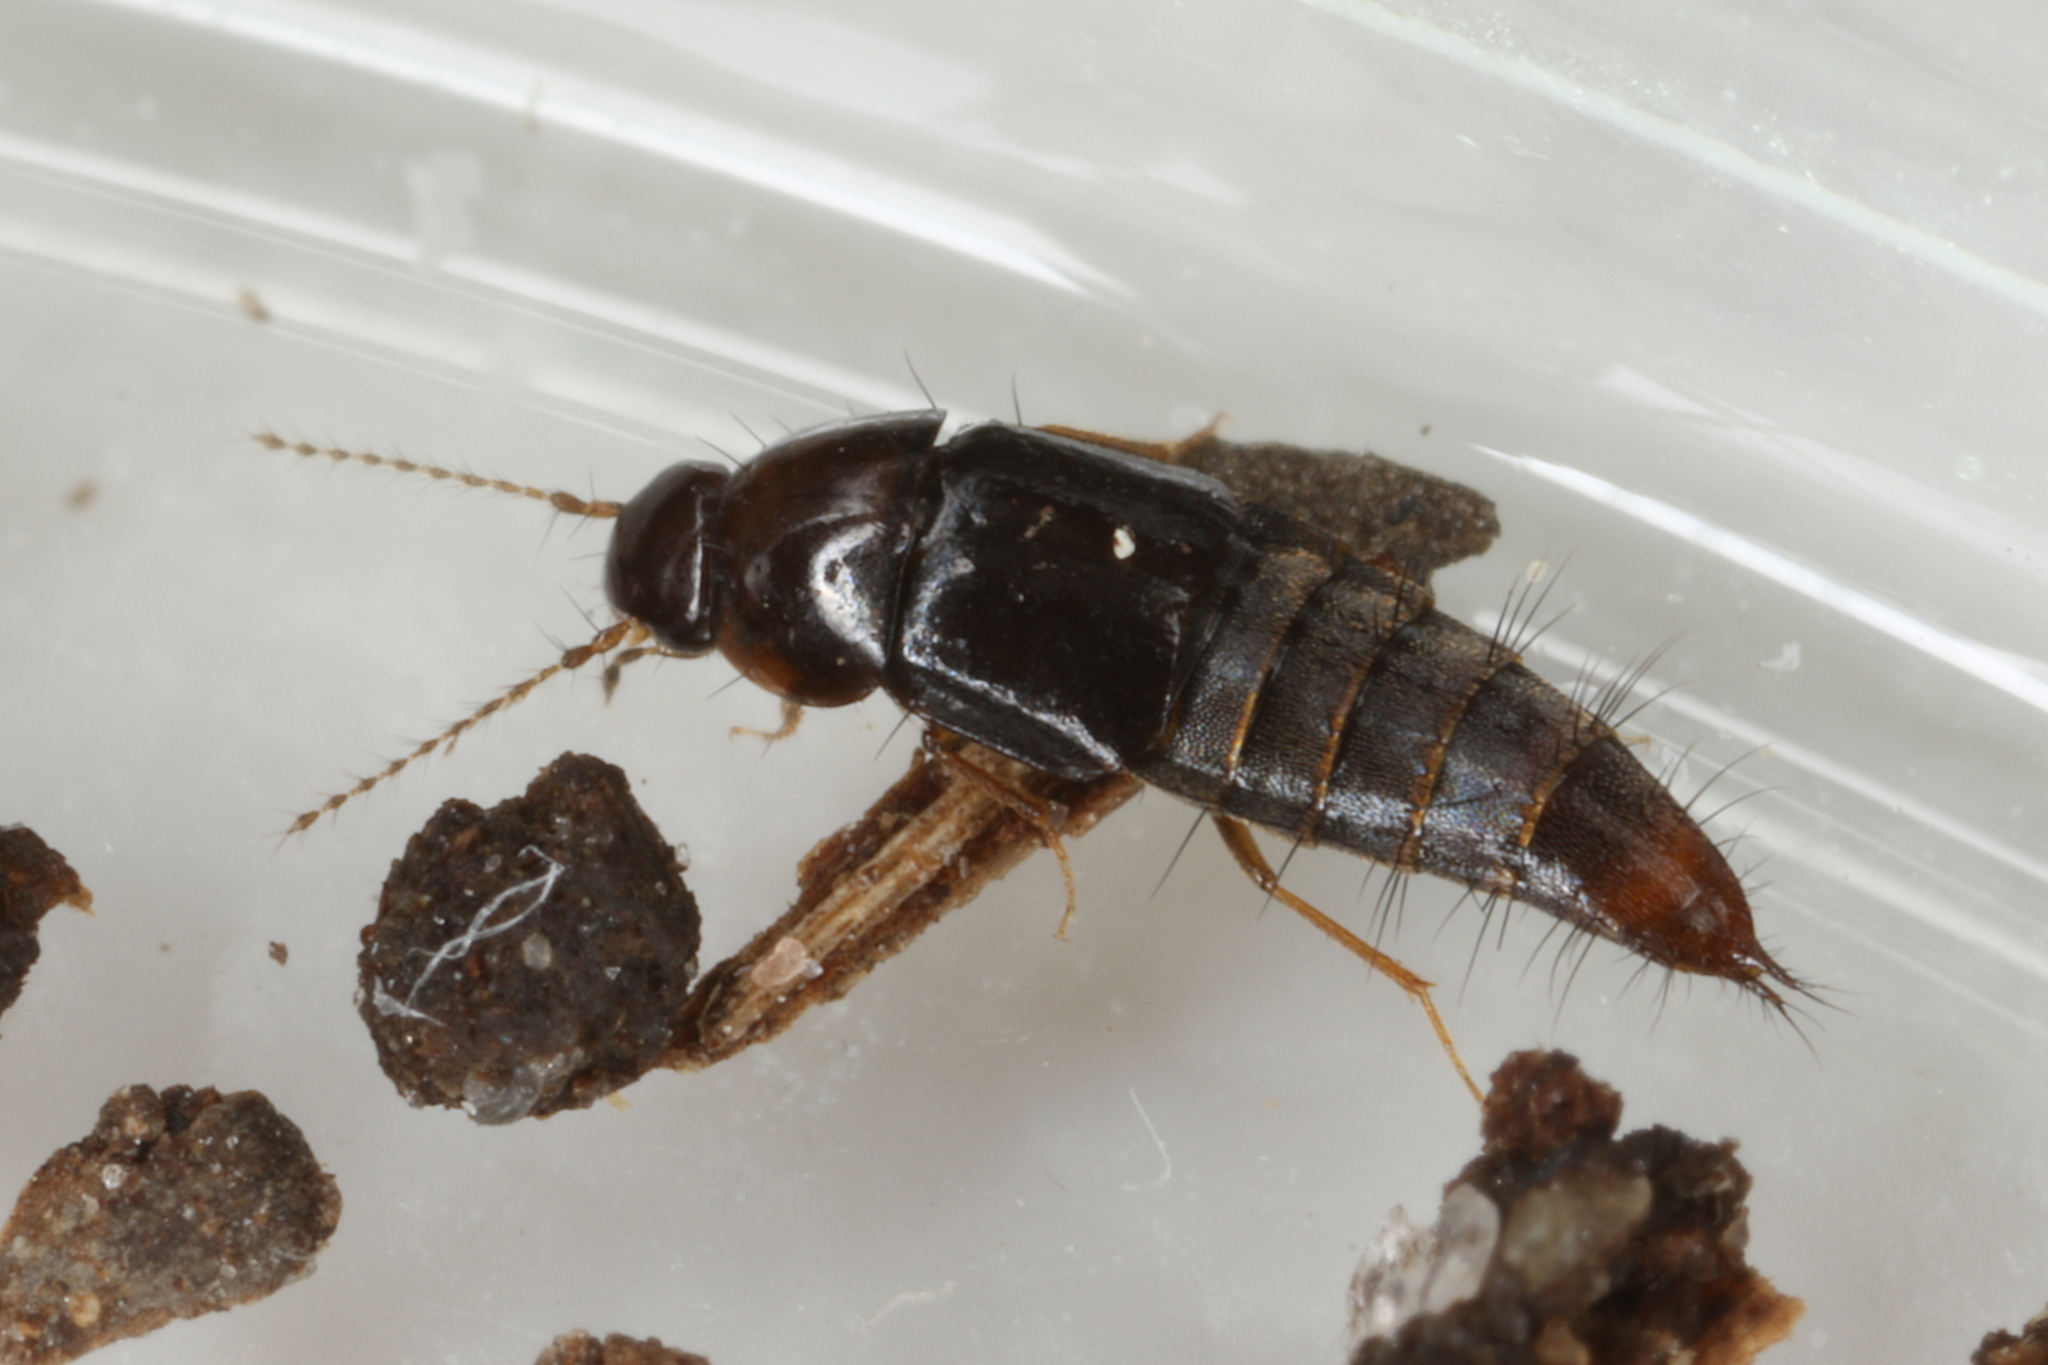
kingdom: Animalia
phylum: Arthropoda
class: Insecta
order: Coleoptera
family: Staphylinidae
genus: Habrocerus
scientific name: Habrocerus capillaricornis
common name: Staph beetle
